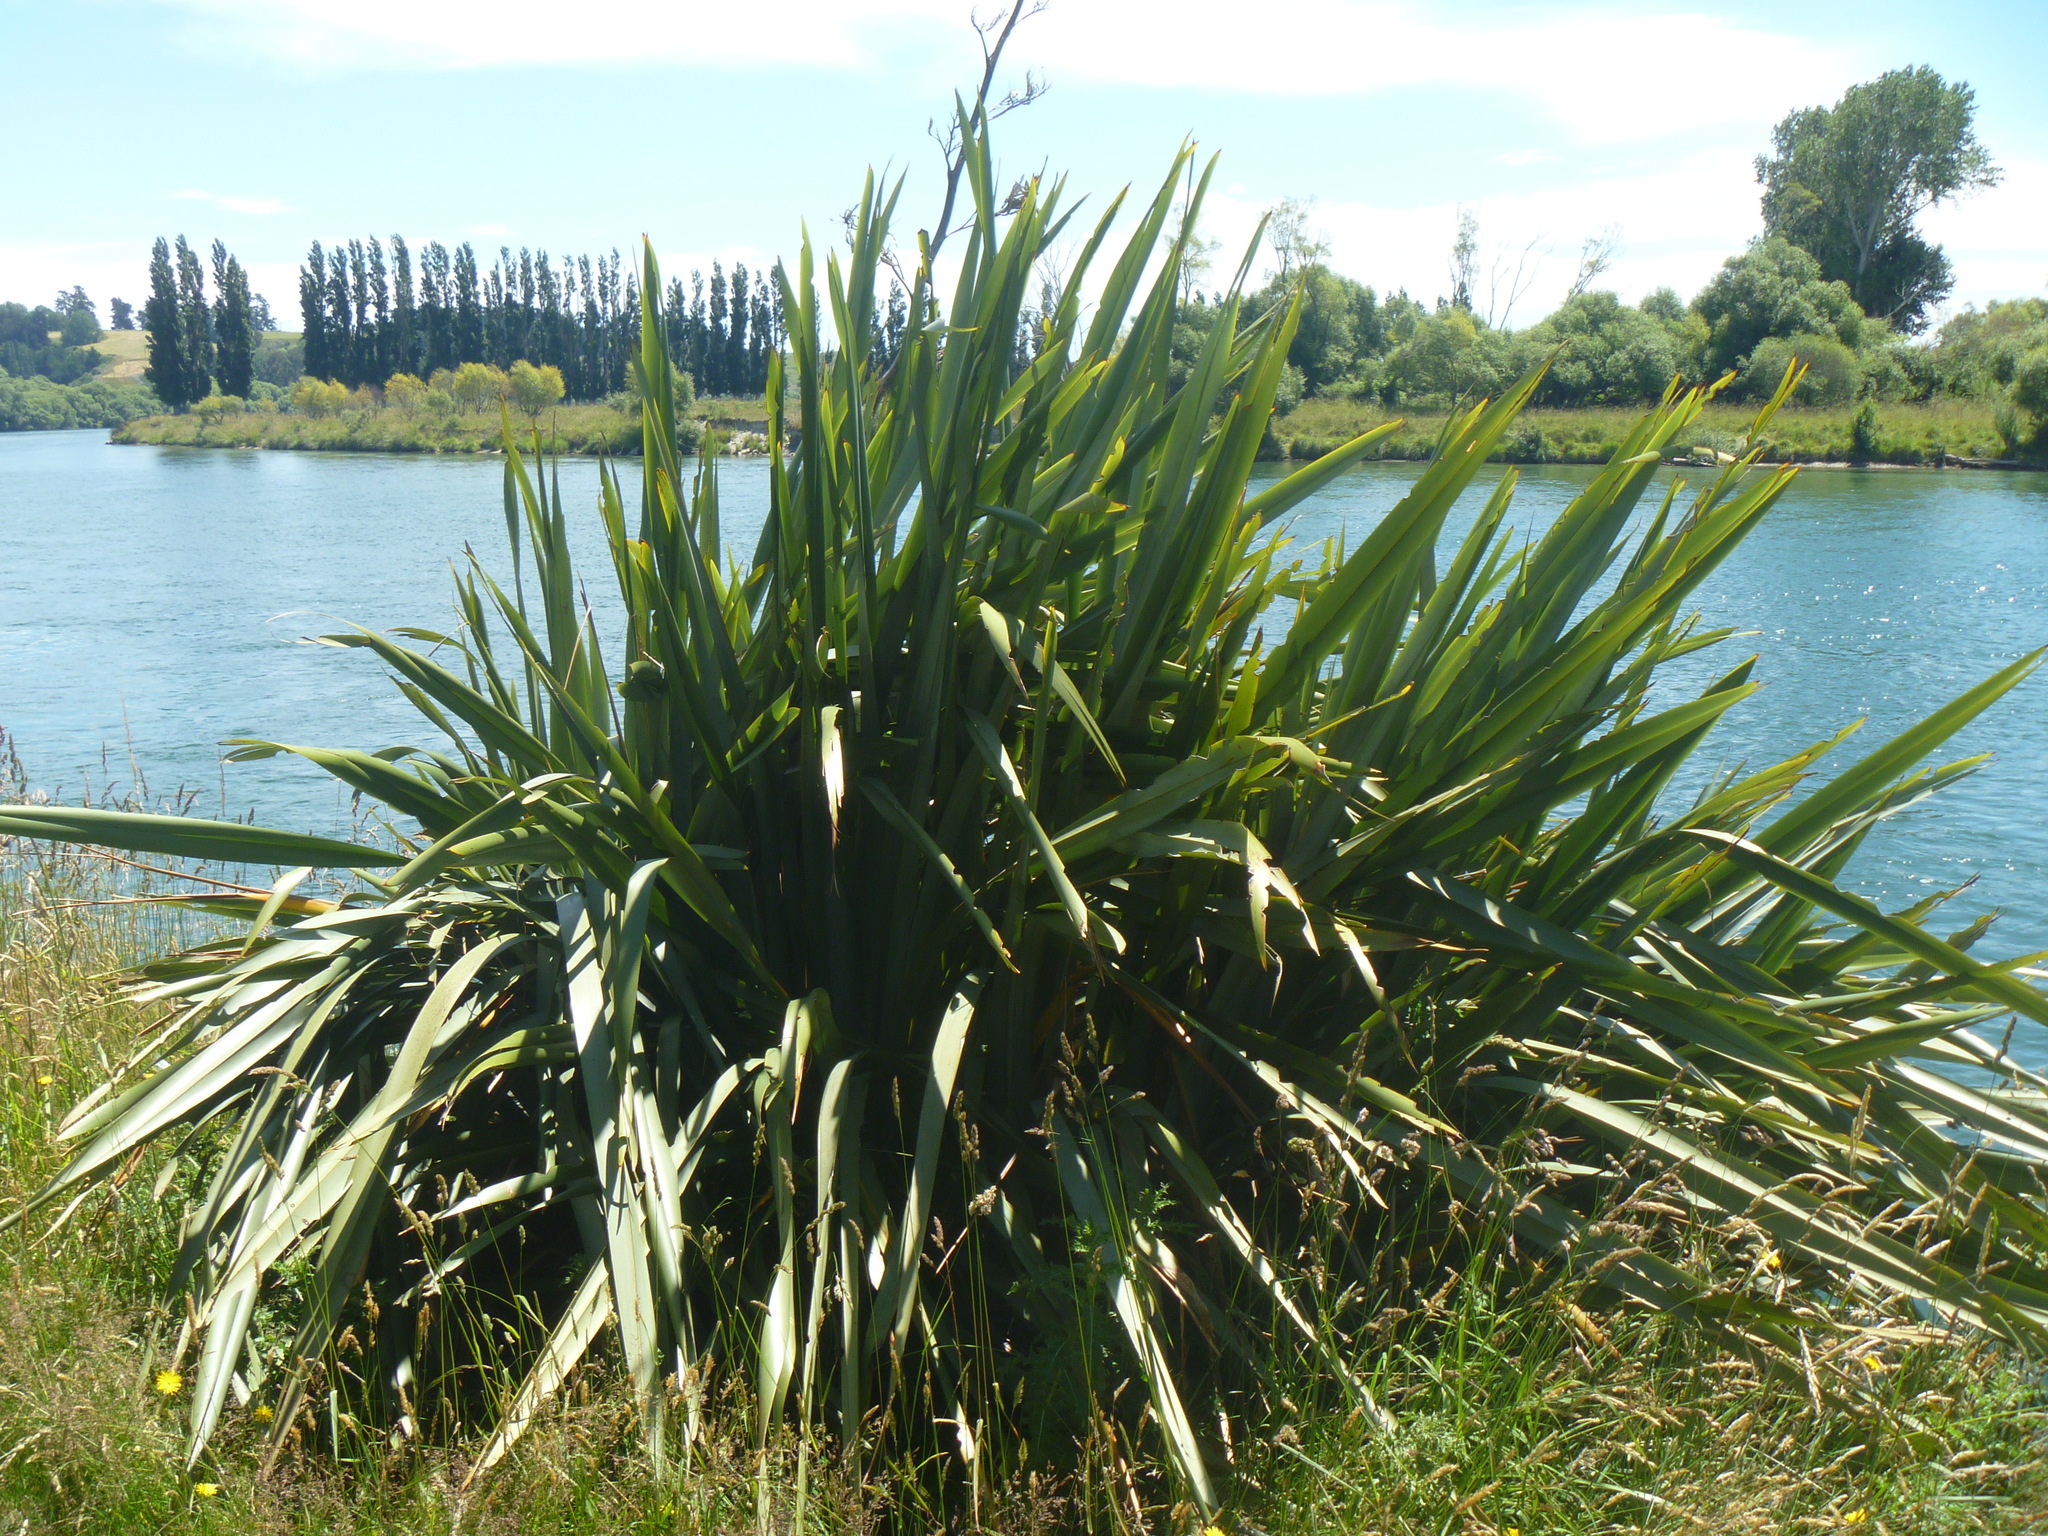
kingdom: Plantae
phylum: Tracheophyta
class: Liliopsida
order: Asparagales
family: Asphodelaceae
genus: Phormium
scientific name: Phormium tenax
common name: New zealand flax
